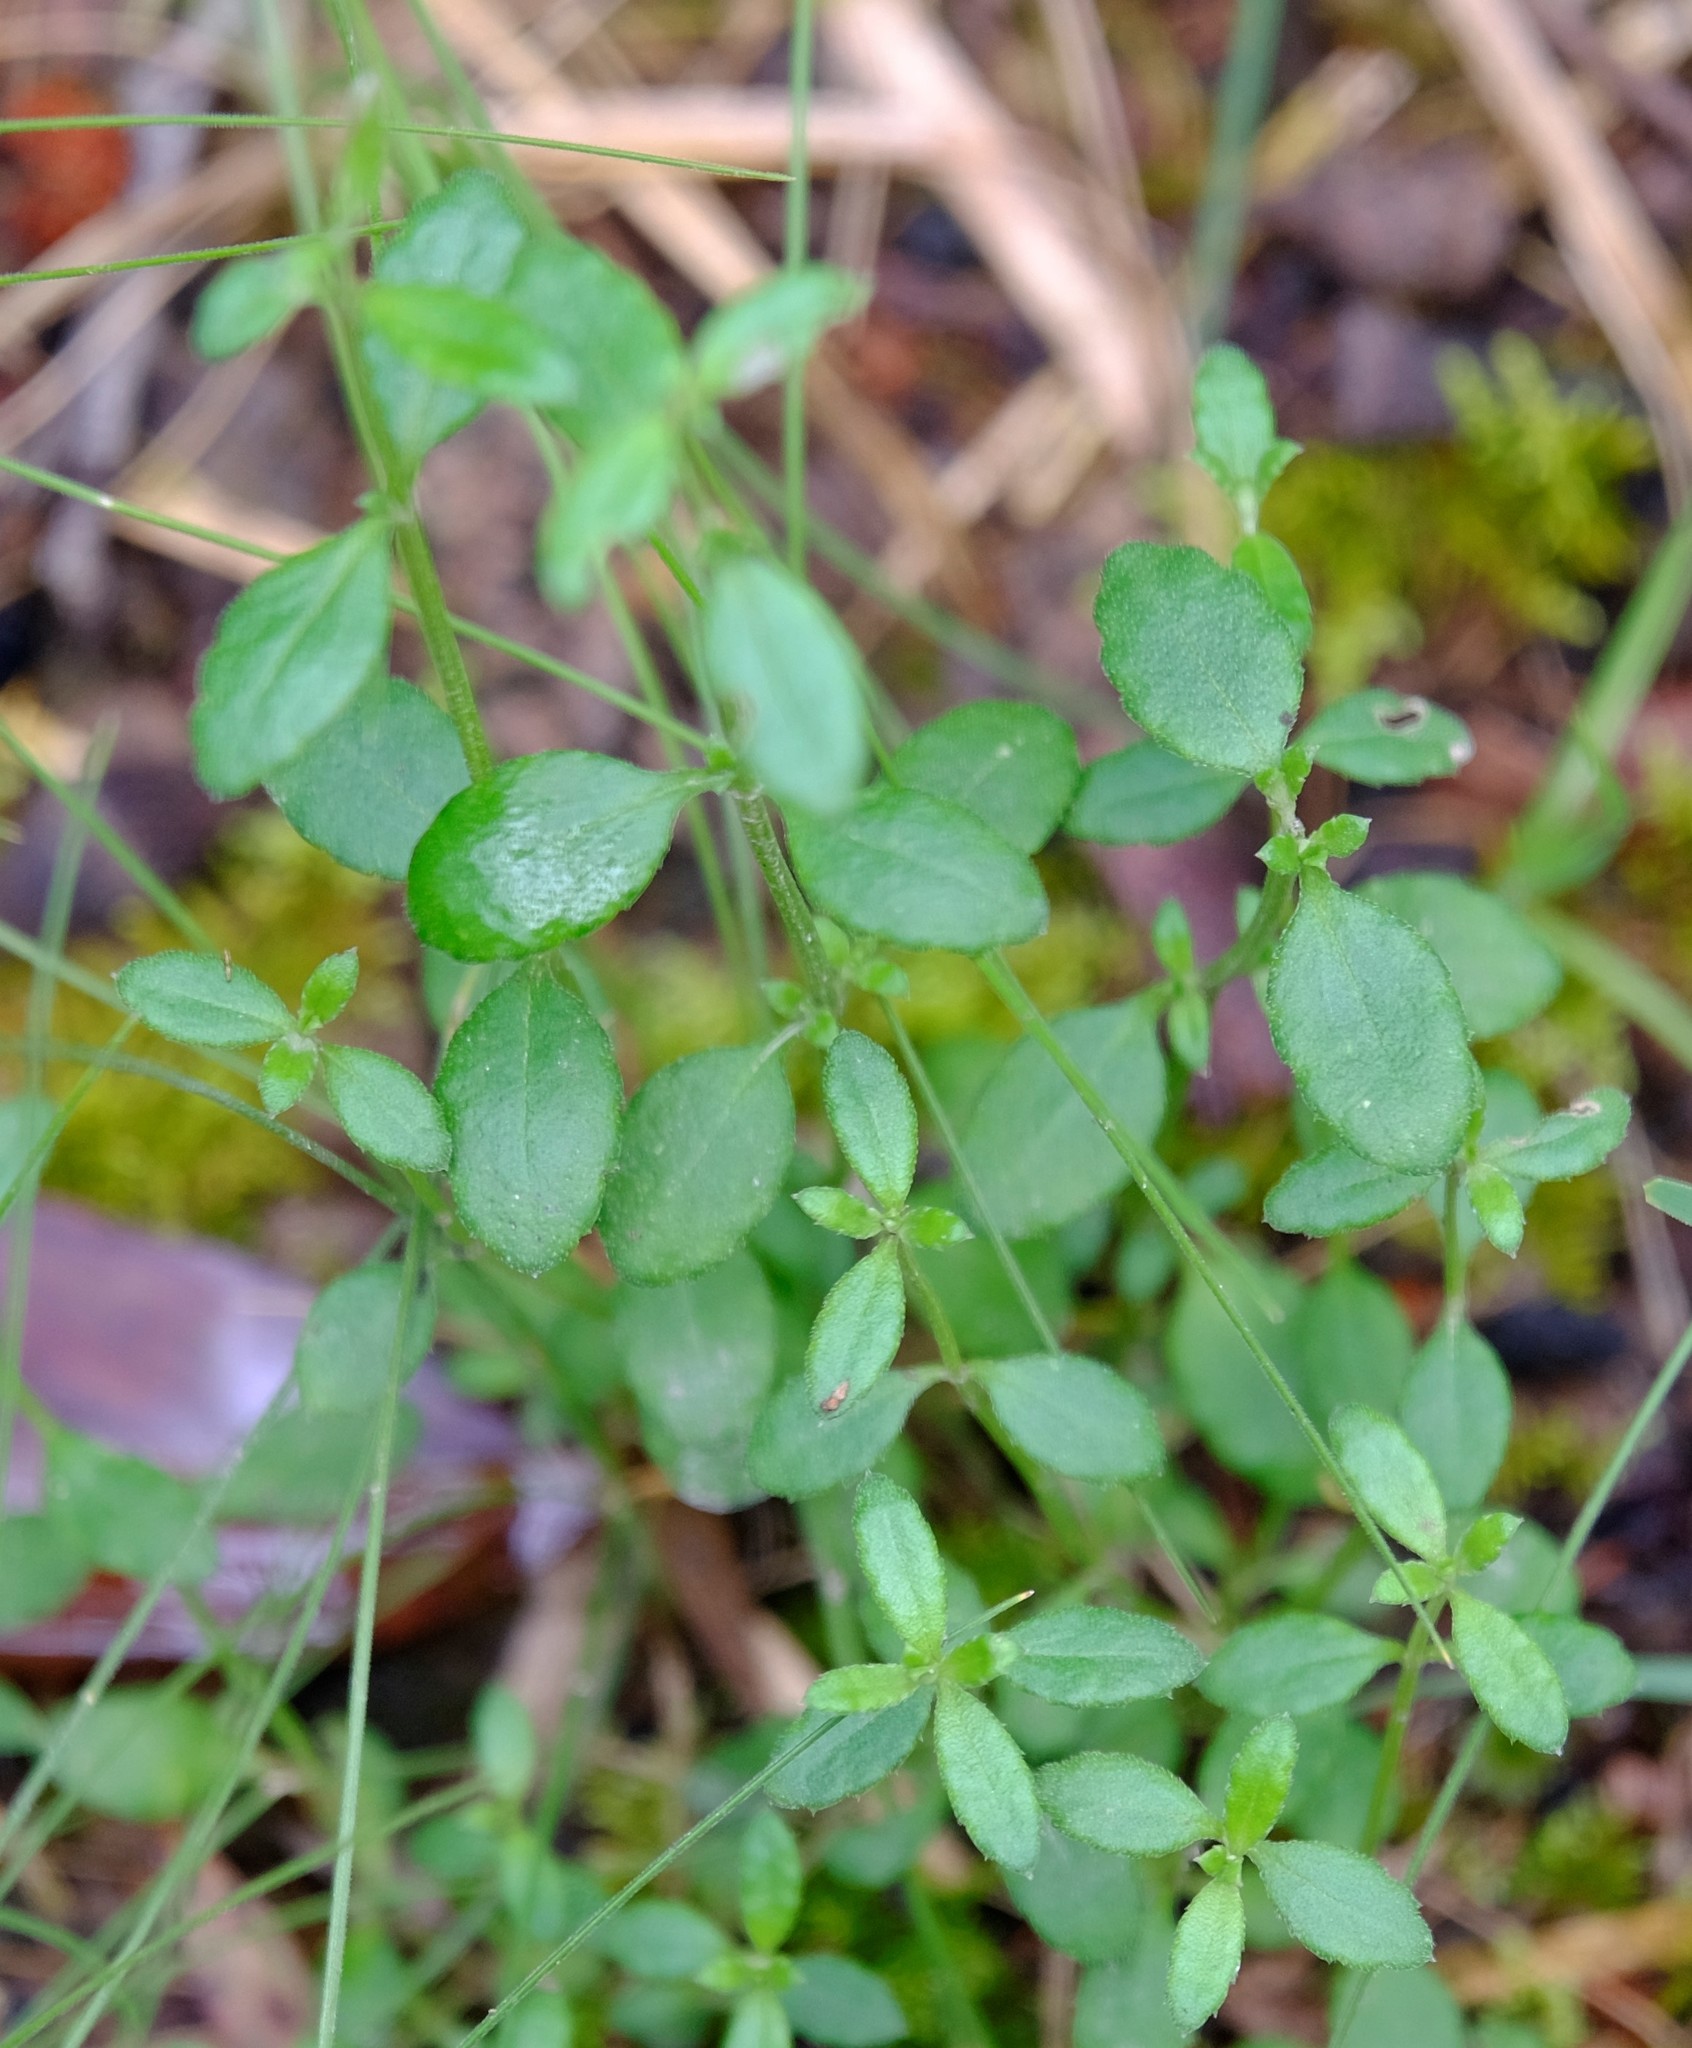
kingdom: Plantae
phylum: Tracheophyta
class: Magnoliopsida
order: Saxifragales
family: Haloragaceae
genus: Gonocarpus
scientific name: Gonocarpus tetragynus
